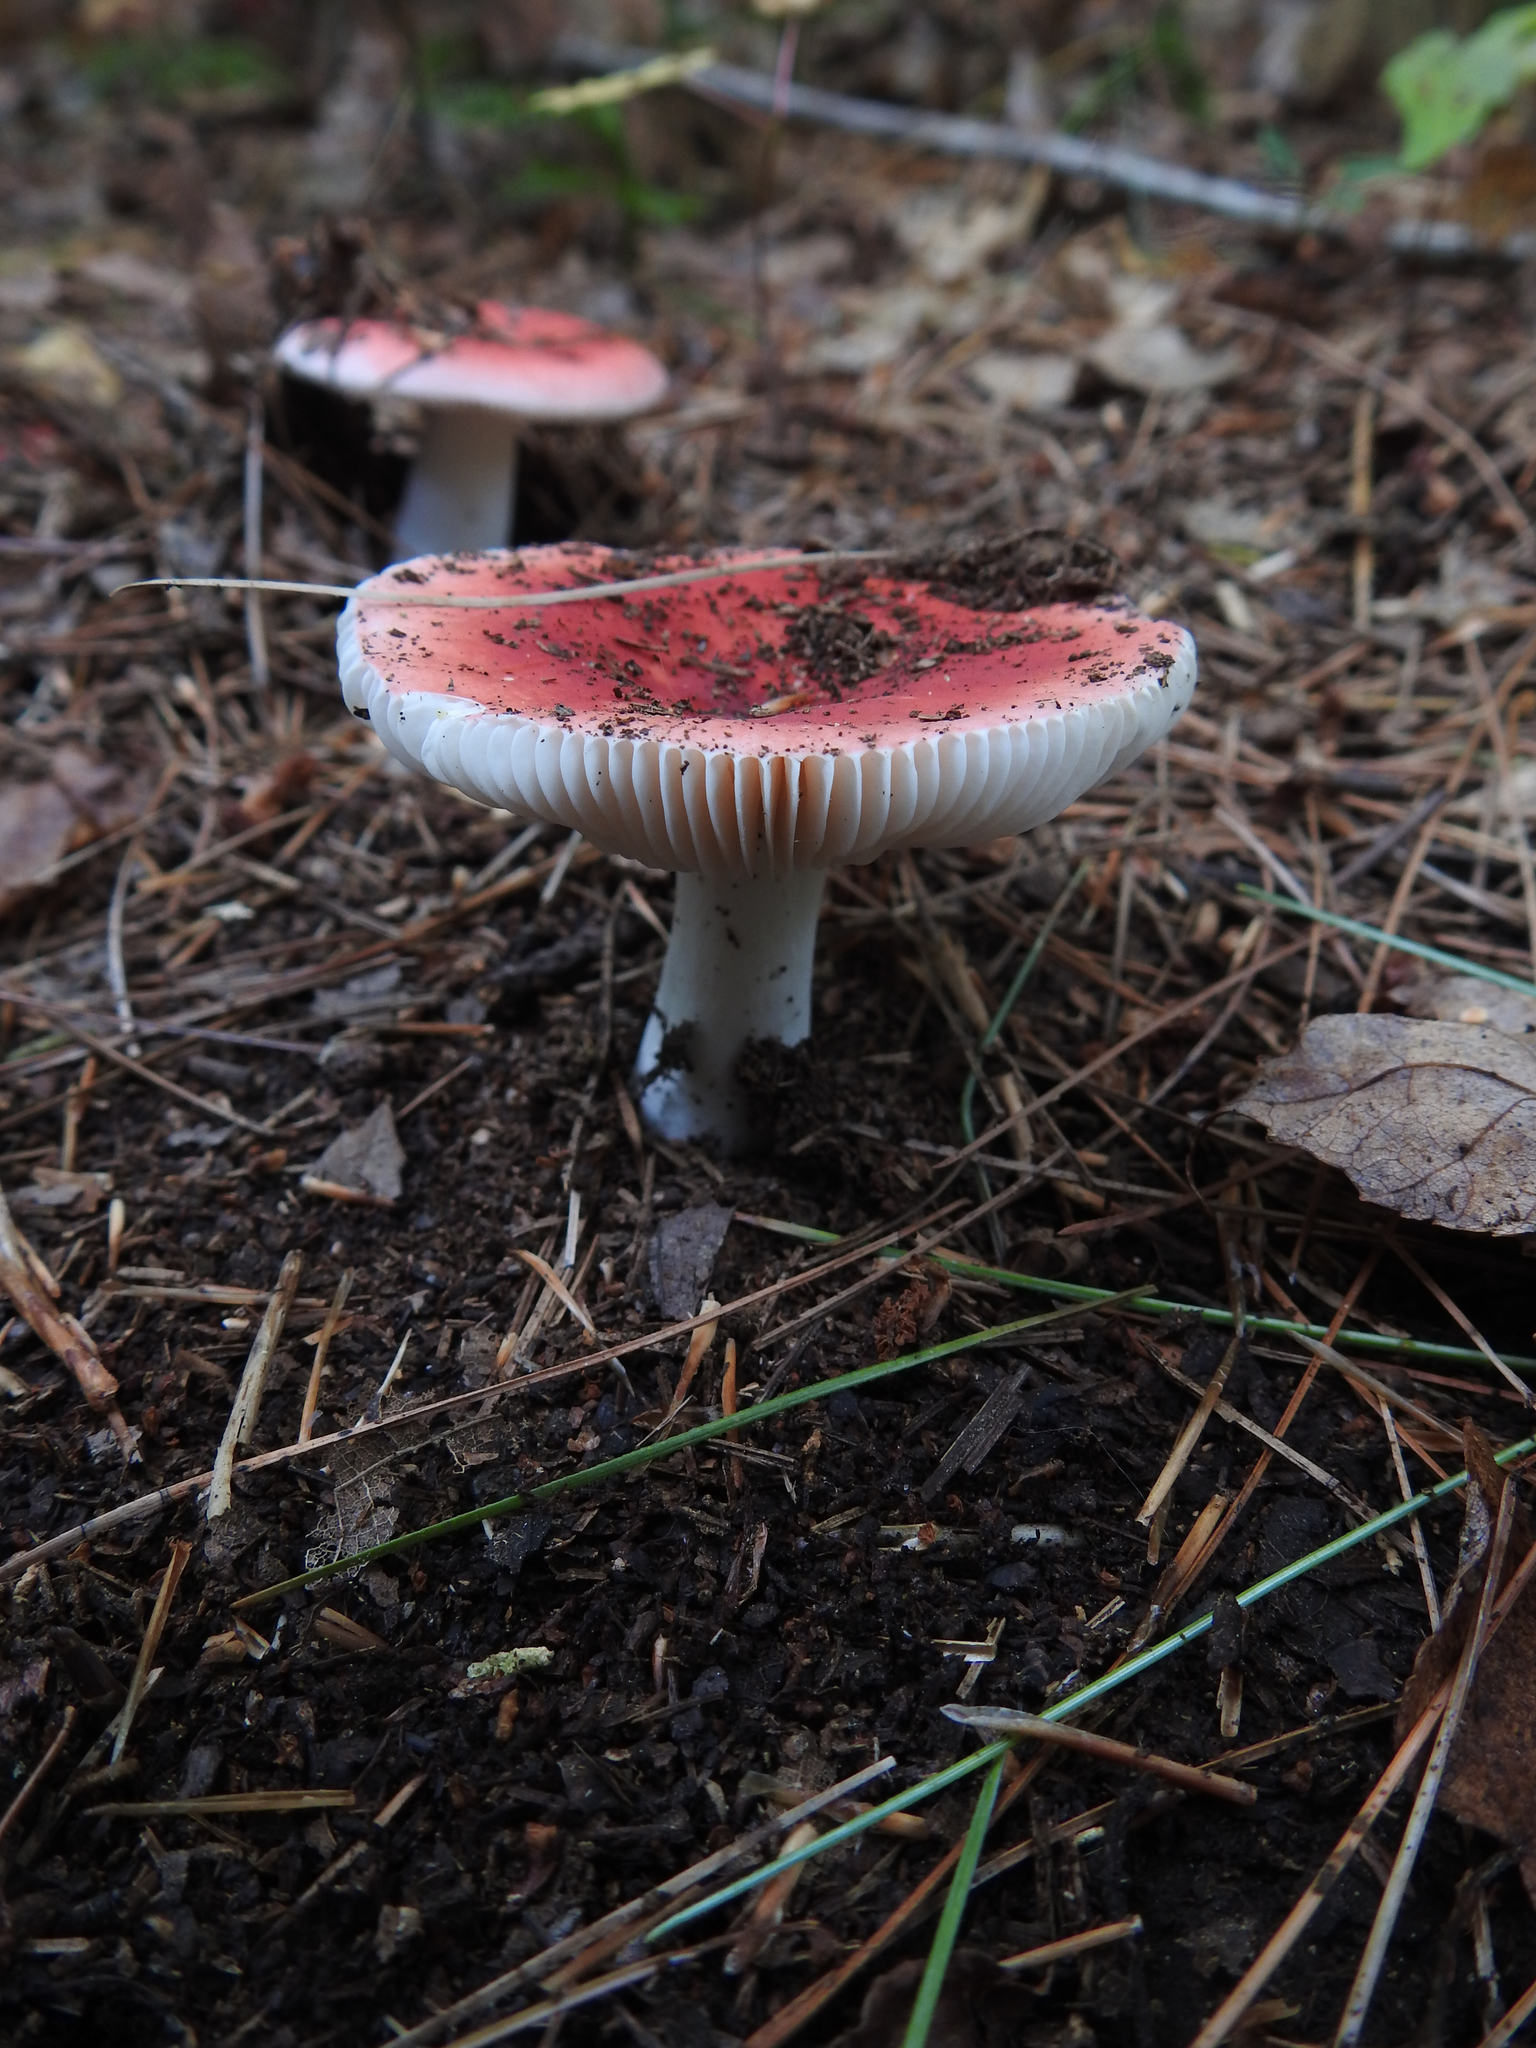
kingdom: Fungi
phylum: Basidiomycota
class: Agaricomycetes
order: Russulales
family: Russulaceae
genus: Russula
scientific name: Russula
